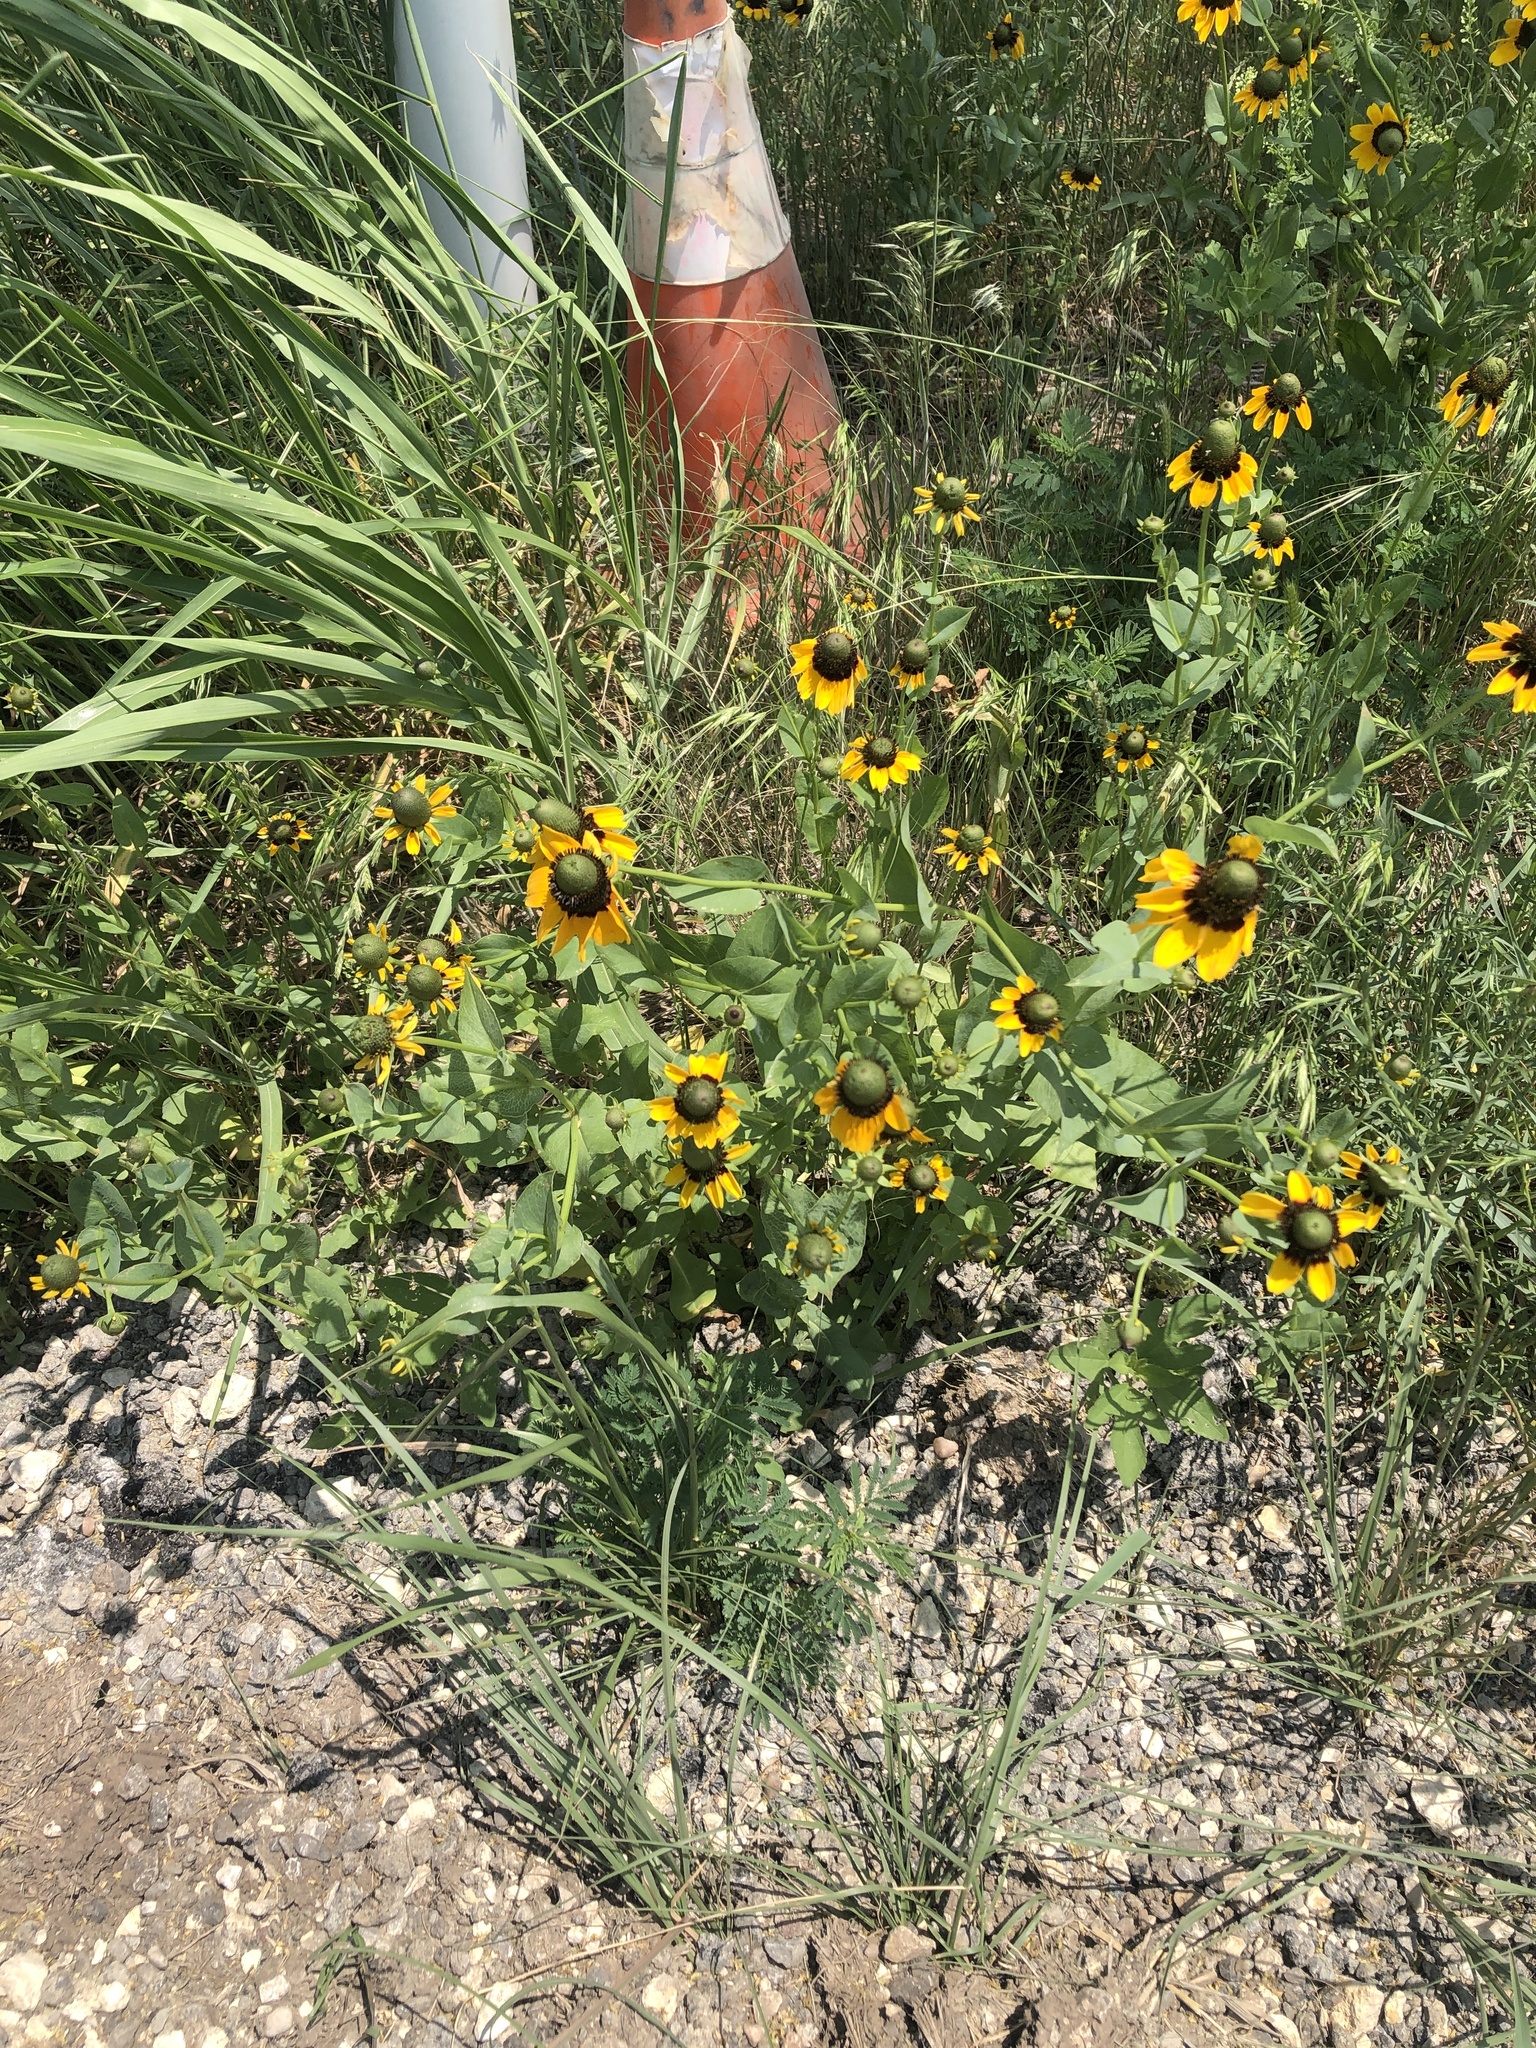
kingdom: Plantae
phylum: Tracheophyta
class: Magnoliopsida
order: Asterales
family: Asteraceae
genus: Rudbeckia
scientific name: Rudbeckia amplexicaulis
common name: Clasping-leaf coneflower
